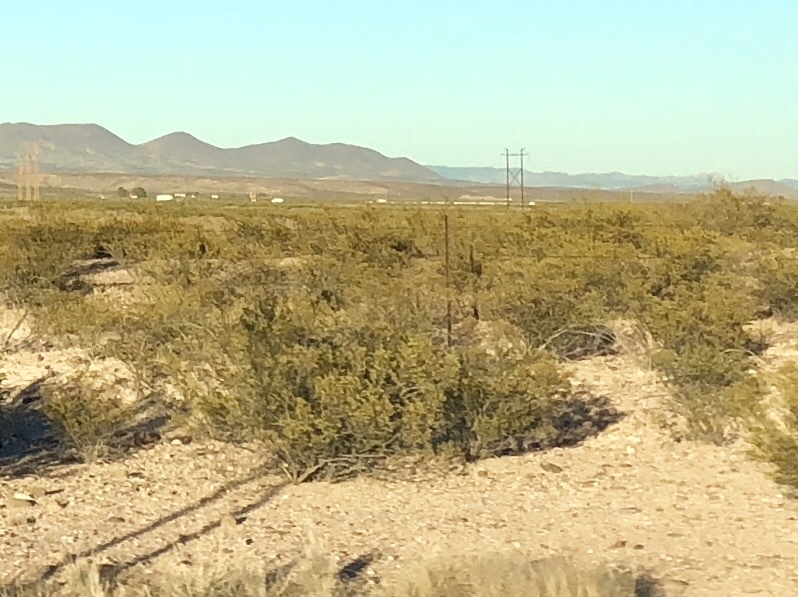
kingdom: Plantae
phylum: Tracheophyta
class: Magnoliopsida
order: Zygophyllales
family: Zygophyllaceae
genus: Larrea
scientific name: Larrea tridentata
